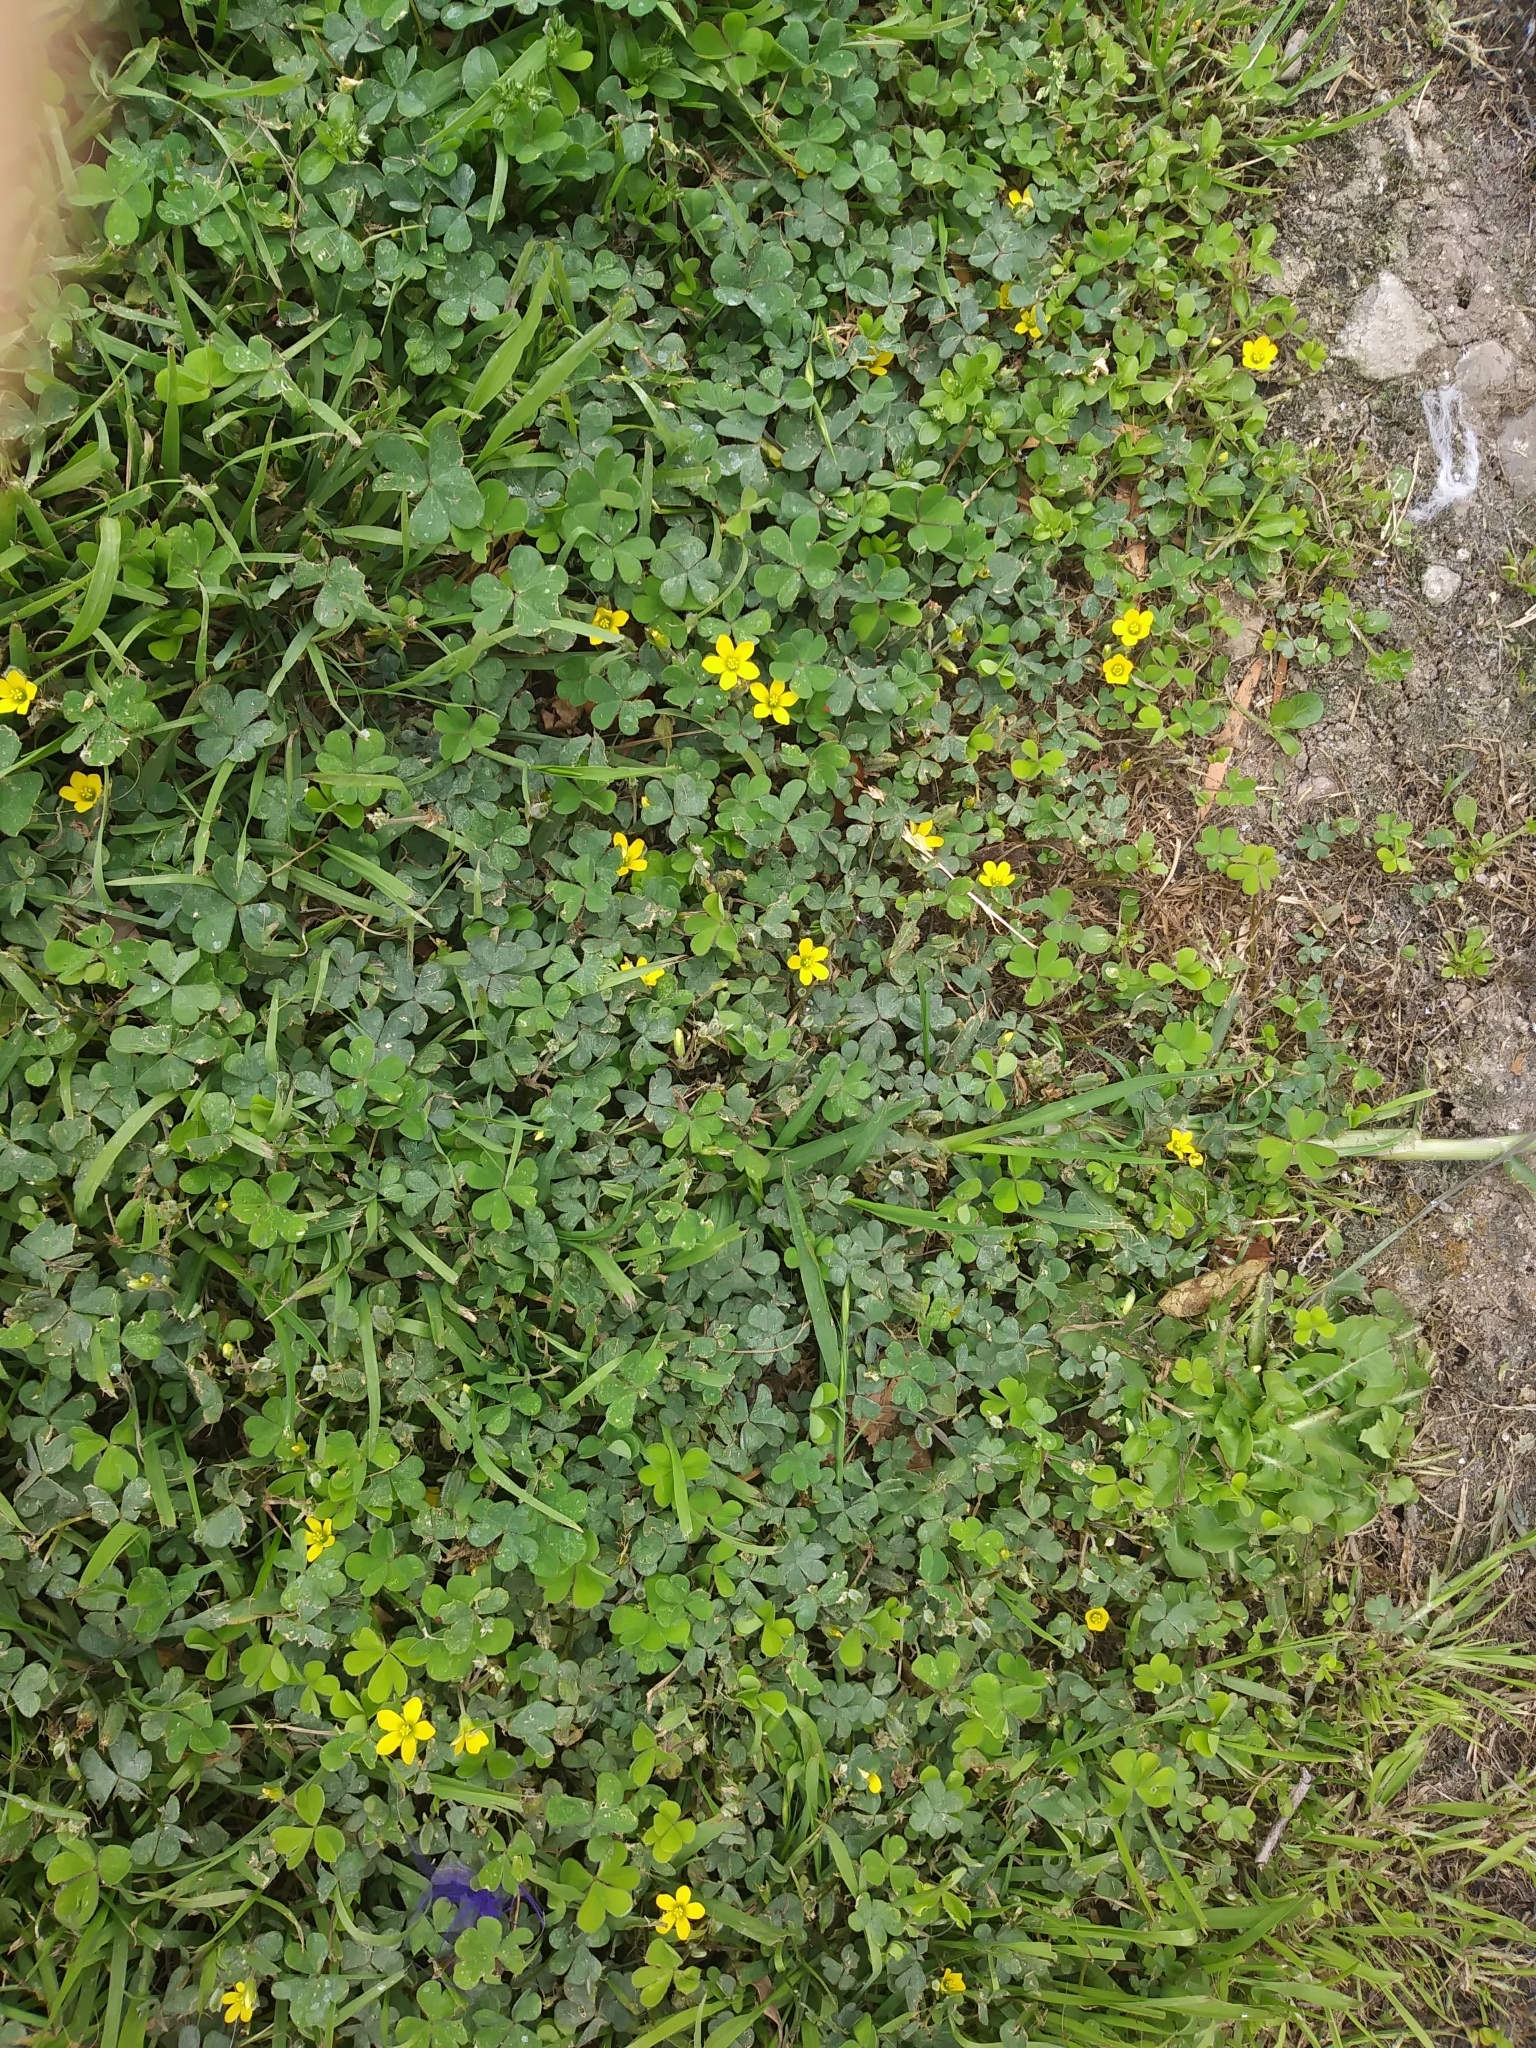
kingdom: Plantae
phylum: Tracheophyta
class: Magnoliopsida
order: Oxalidales
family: Oxalidaceae
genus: Oxalis
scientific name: Oxalis corniculata
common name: Procumbent yellow-sorrel
